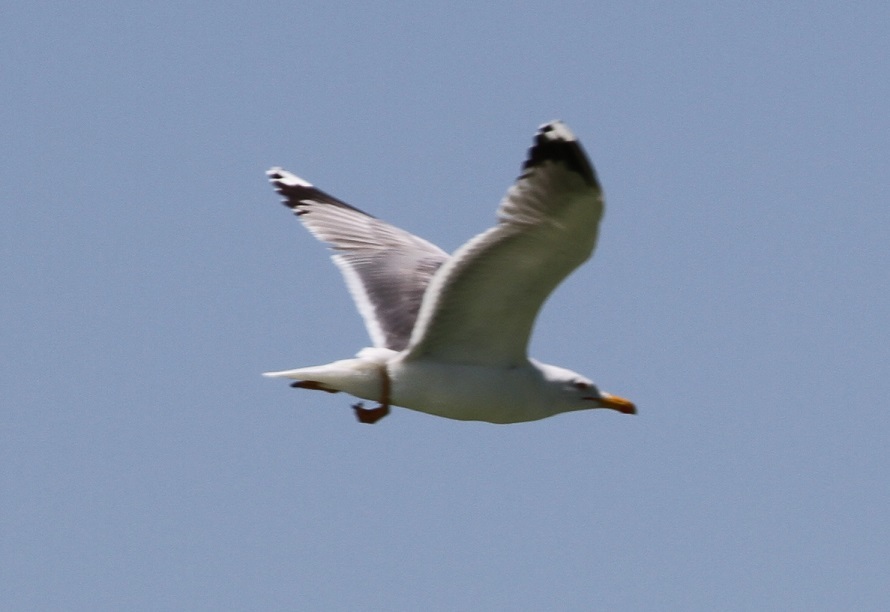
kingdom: Animalia
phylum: Chordata
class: Aves
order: Charadriiformes
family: Laridae
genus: Larus
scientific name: Larus michahellis
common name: Yellow-legged gull
